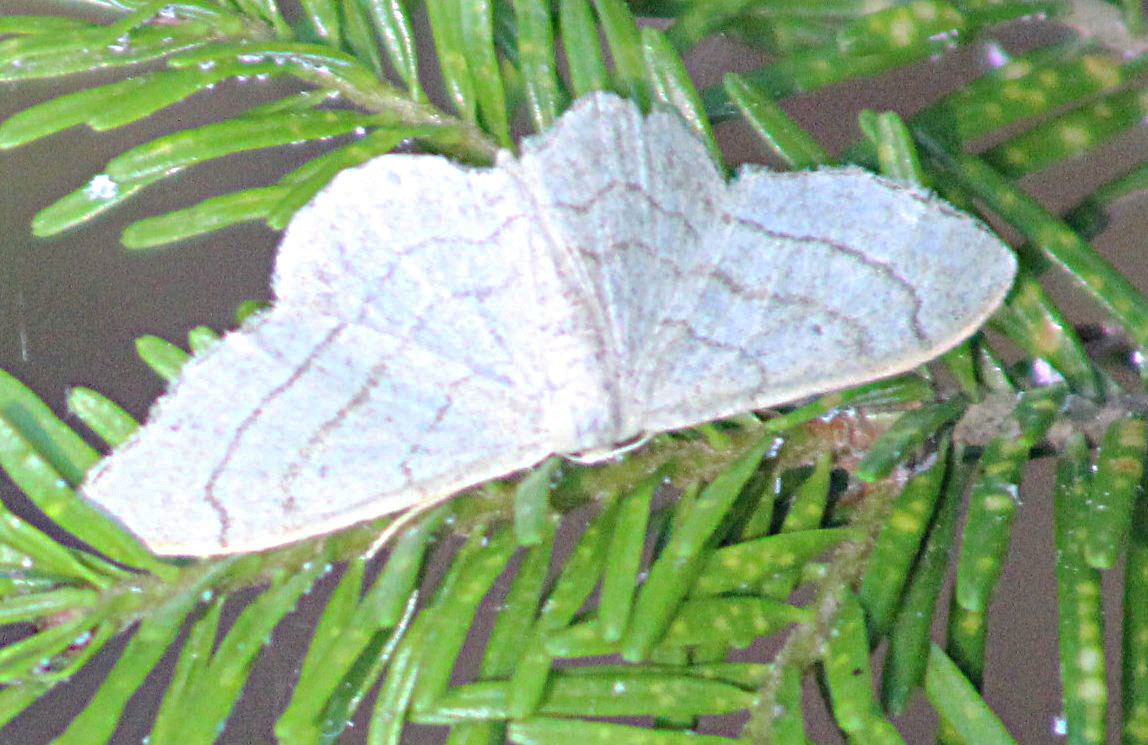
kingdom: Animalia
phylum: Arthropoda
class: Insecta
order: Lepidoptera
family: Geometridae
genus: Idaea
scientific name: Idaea aversata
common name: Riband wave
